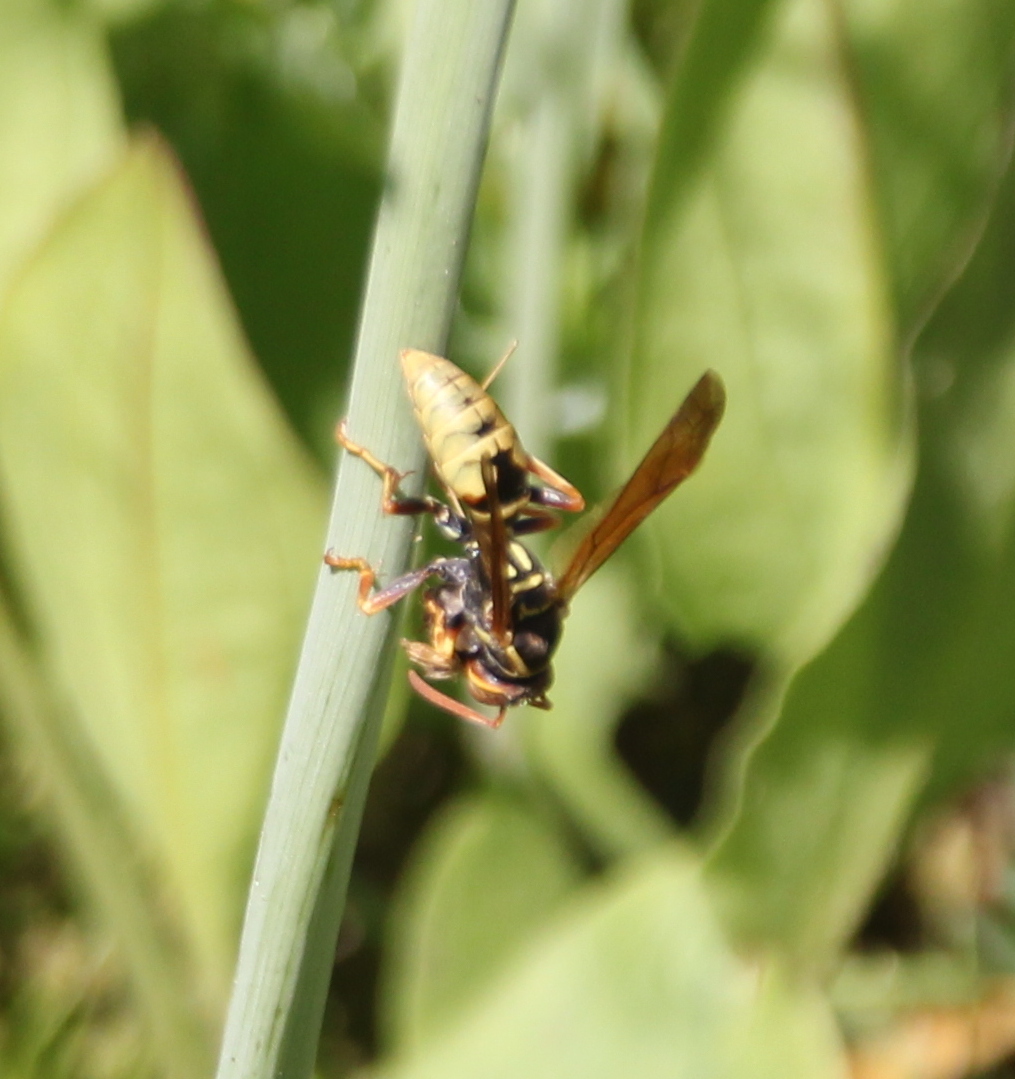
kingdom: Animalia
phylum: Arthropoda
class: Insecta
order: Hymenoptera
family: Eumenidae
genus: Polistes
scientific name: Polistes aurifer
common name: Paper wasp
